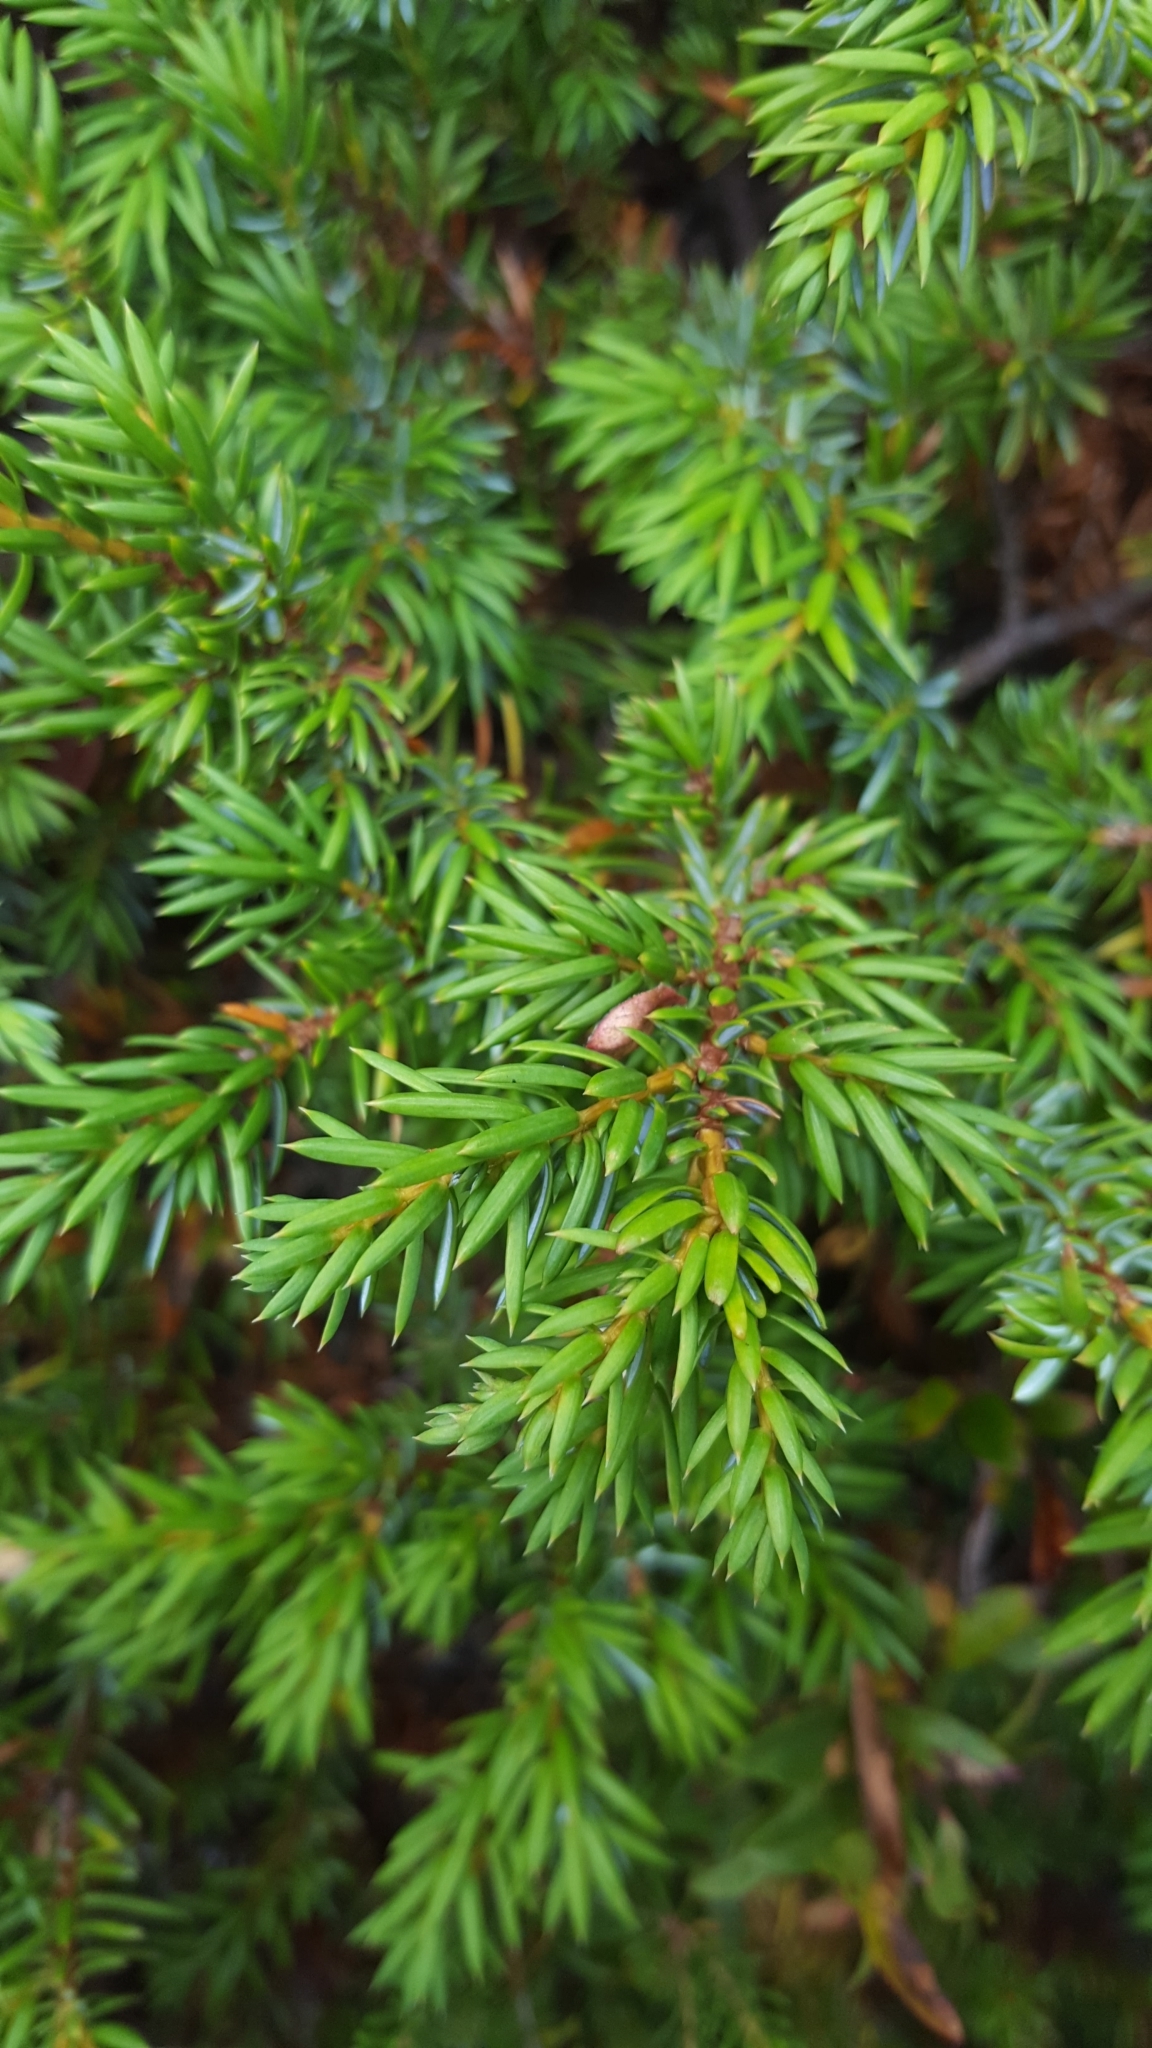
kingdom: Plantae
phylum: Tracheophyta
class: Pinopsida
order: Pinales
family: Cupressaceae
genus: Juniperus
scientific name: Juniperus communis
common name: Common juniper
